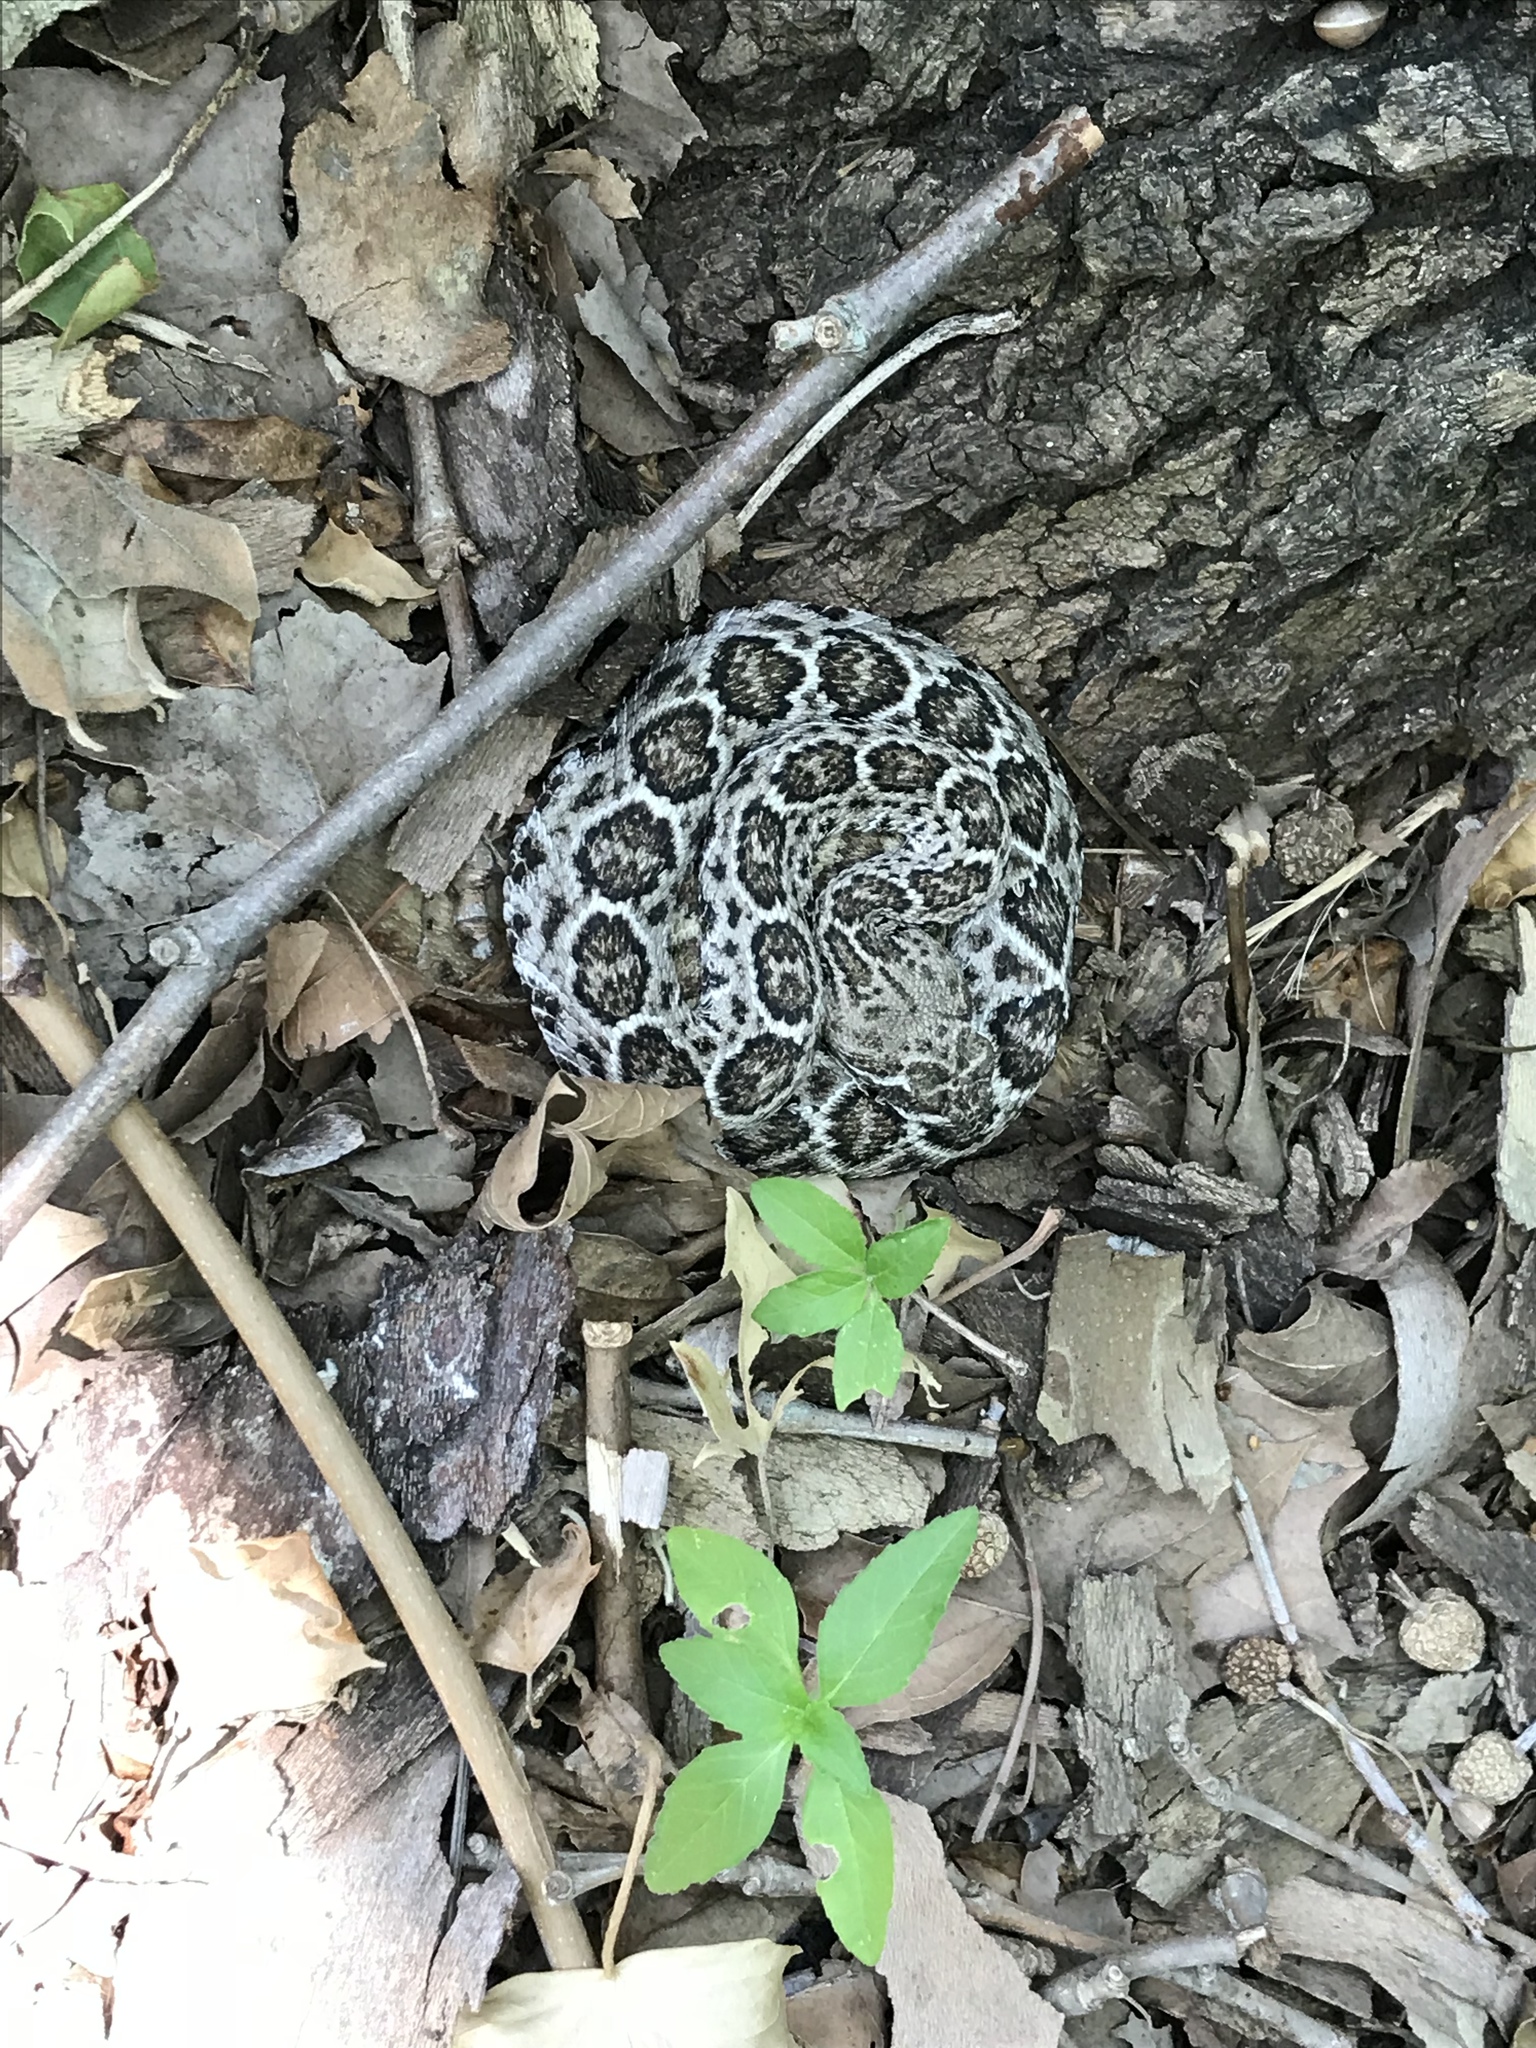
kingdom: Animalia
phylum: Chordata
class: Squamata
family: Viperidae
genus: Crotalus
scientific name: Crotalus atrox
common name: Western diamond-backed rattlesnake
